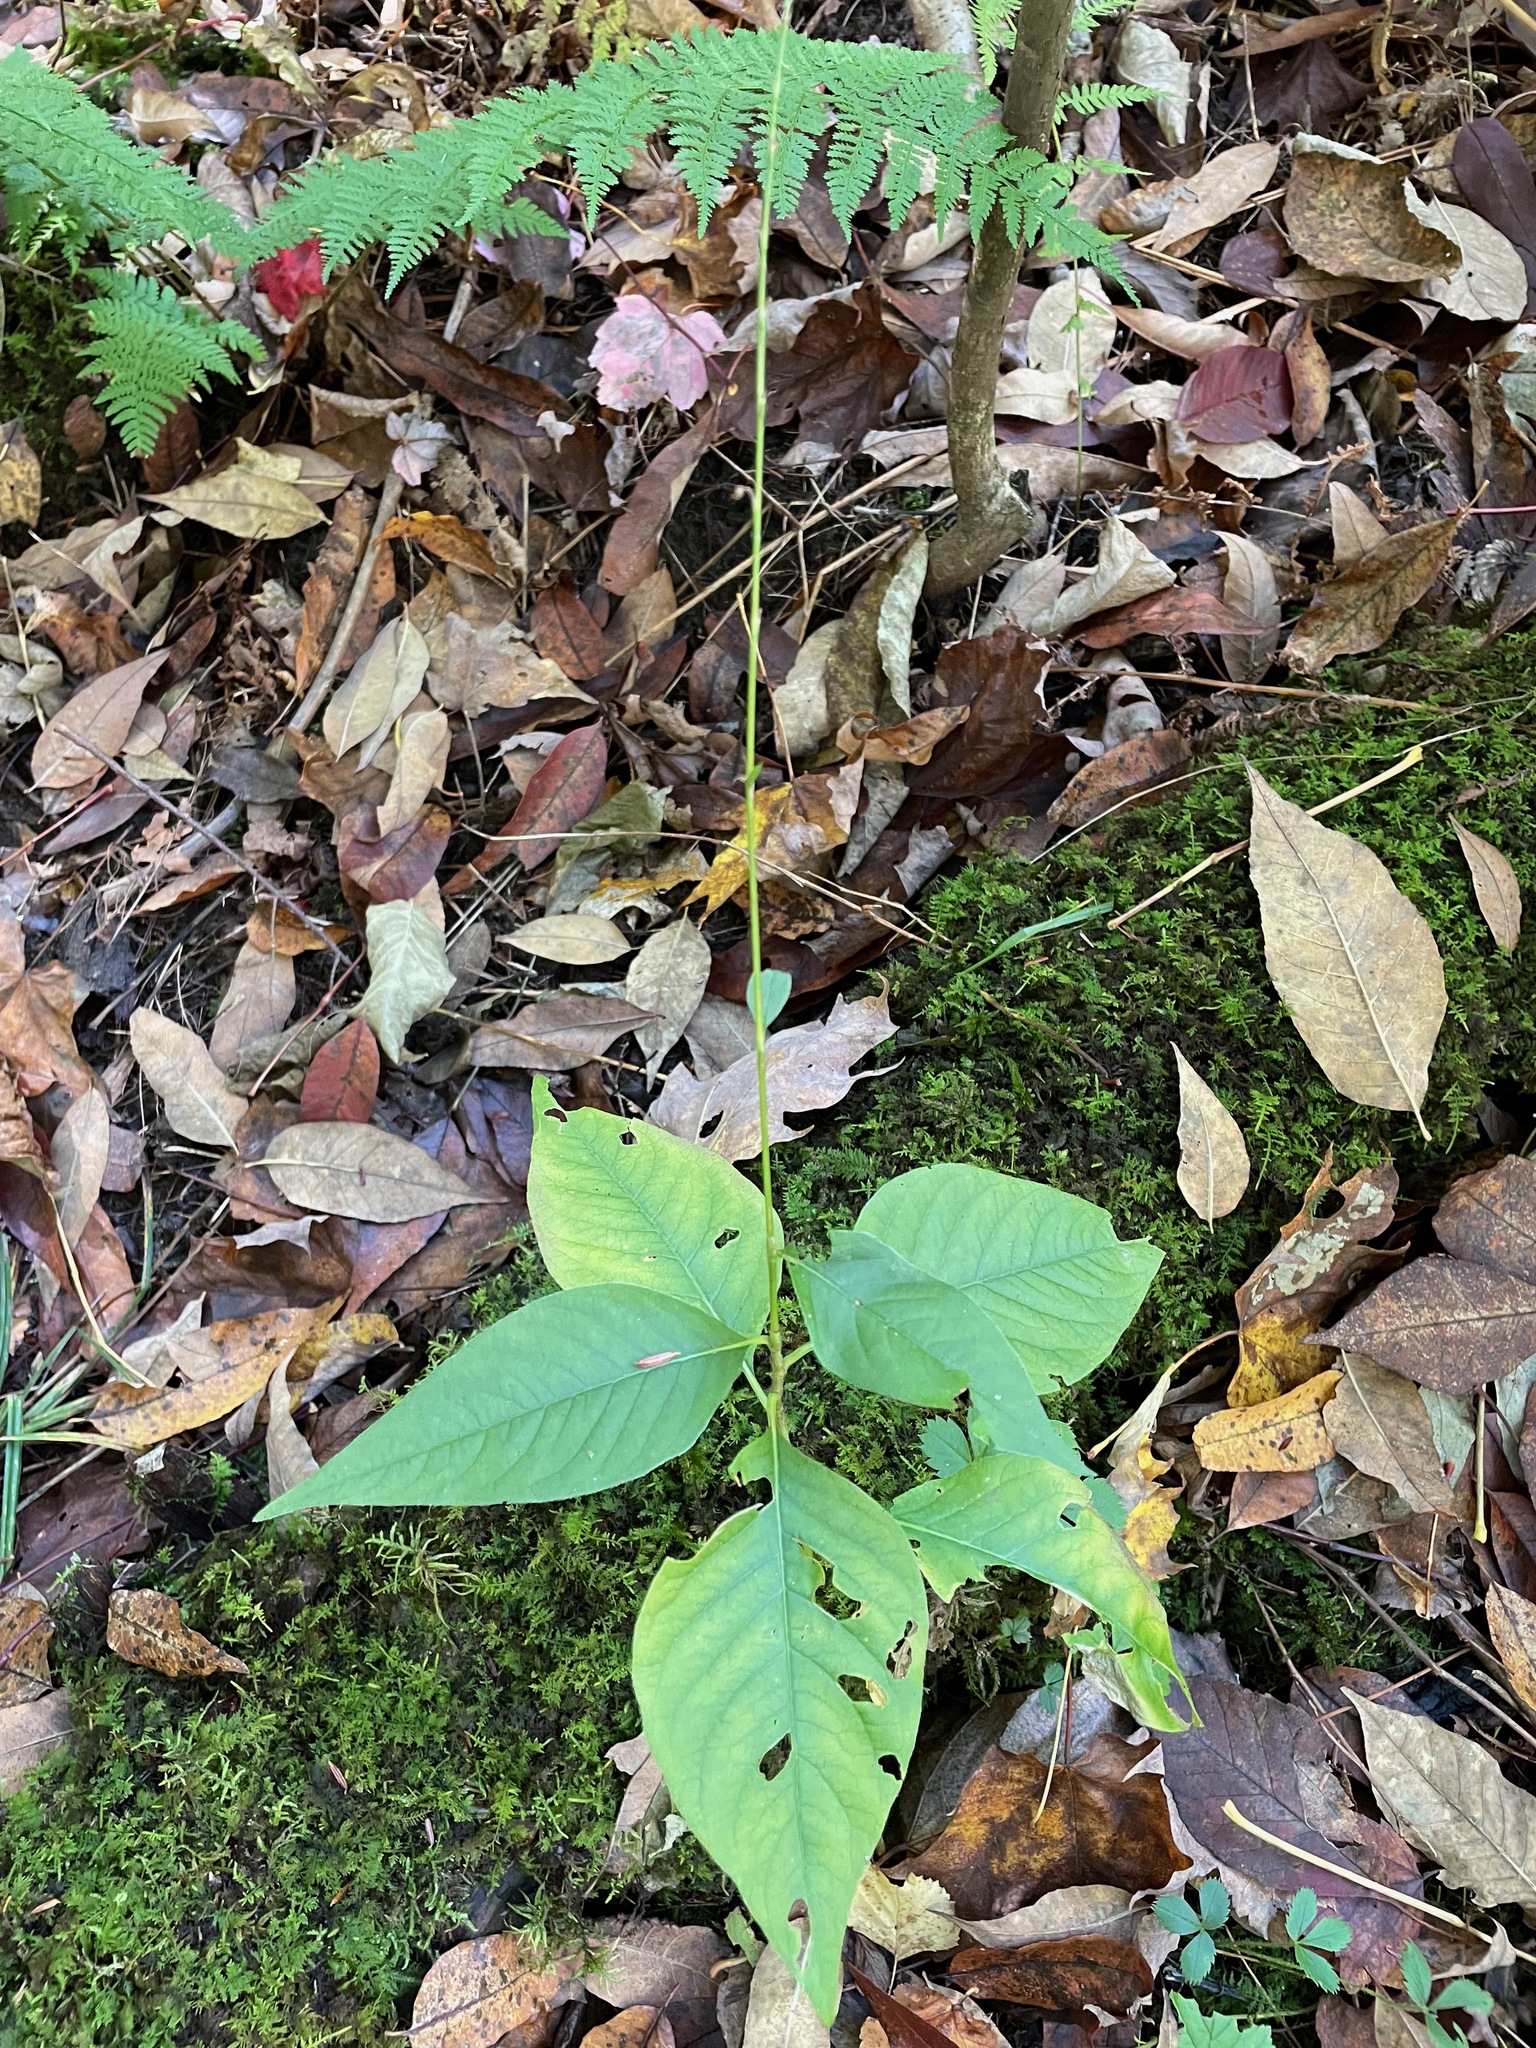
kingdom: Plantae
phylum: Tracheophyta
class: Magnoliopsida
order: Caryophyllales
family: Polygonaceae
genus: Persicaria
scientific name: Persicaria virginiana
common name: Jumpseed
